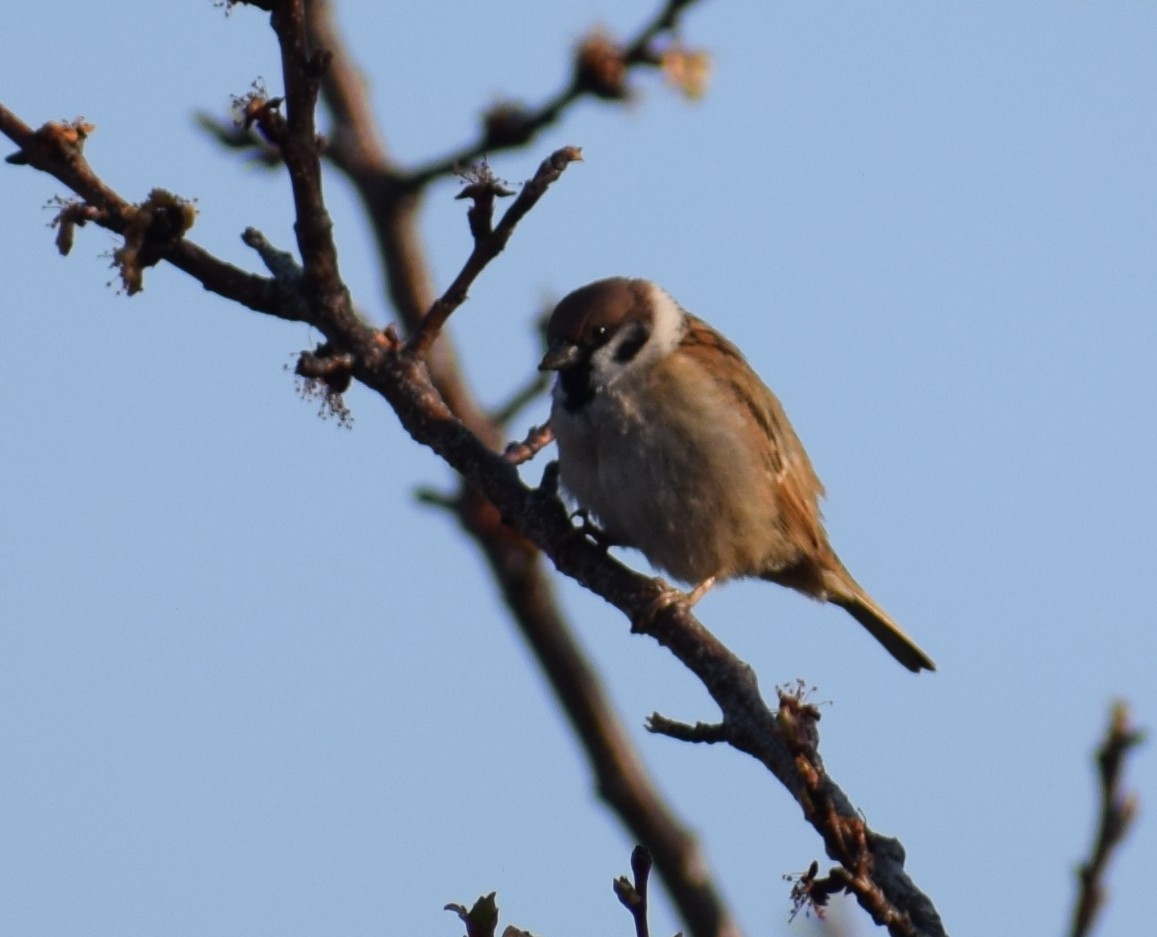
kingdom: Animalia
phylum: Chordata
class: Aves
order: Passeriformes
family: Passeridae
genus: Passer
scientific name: Passer montanus
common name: Eurasian tree sparrow
